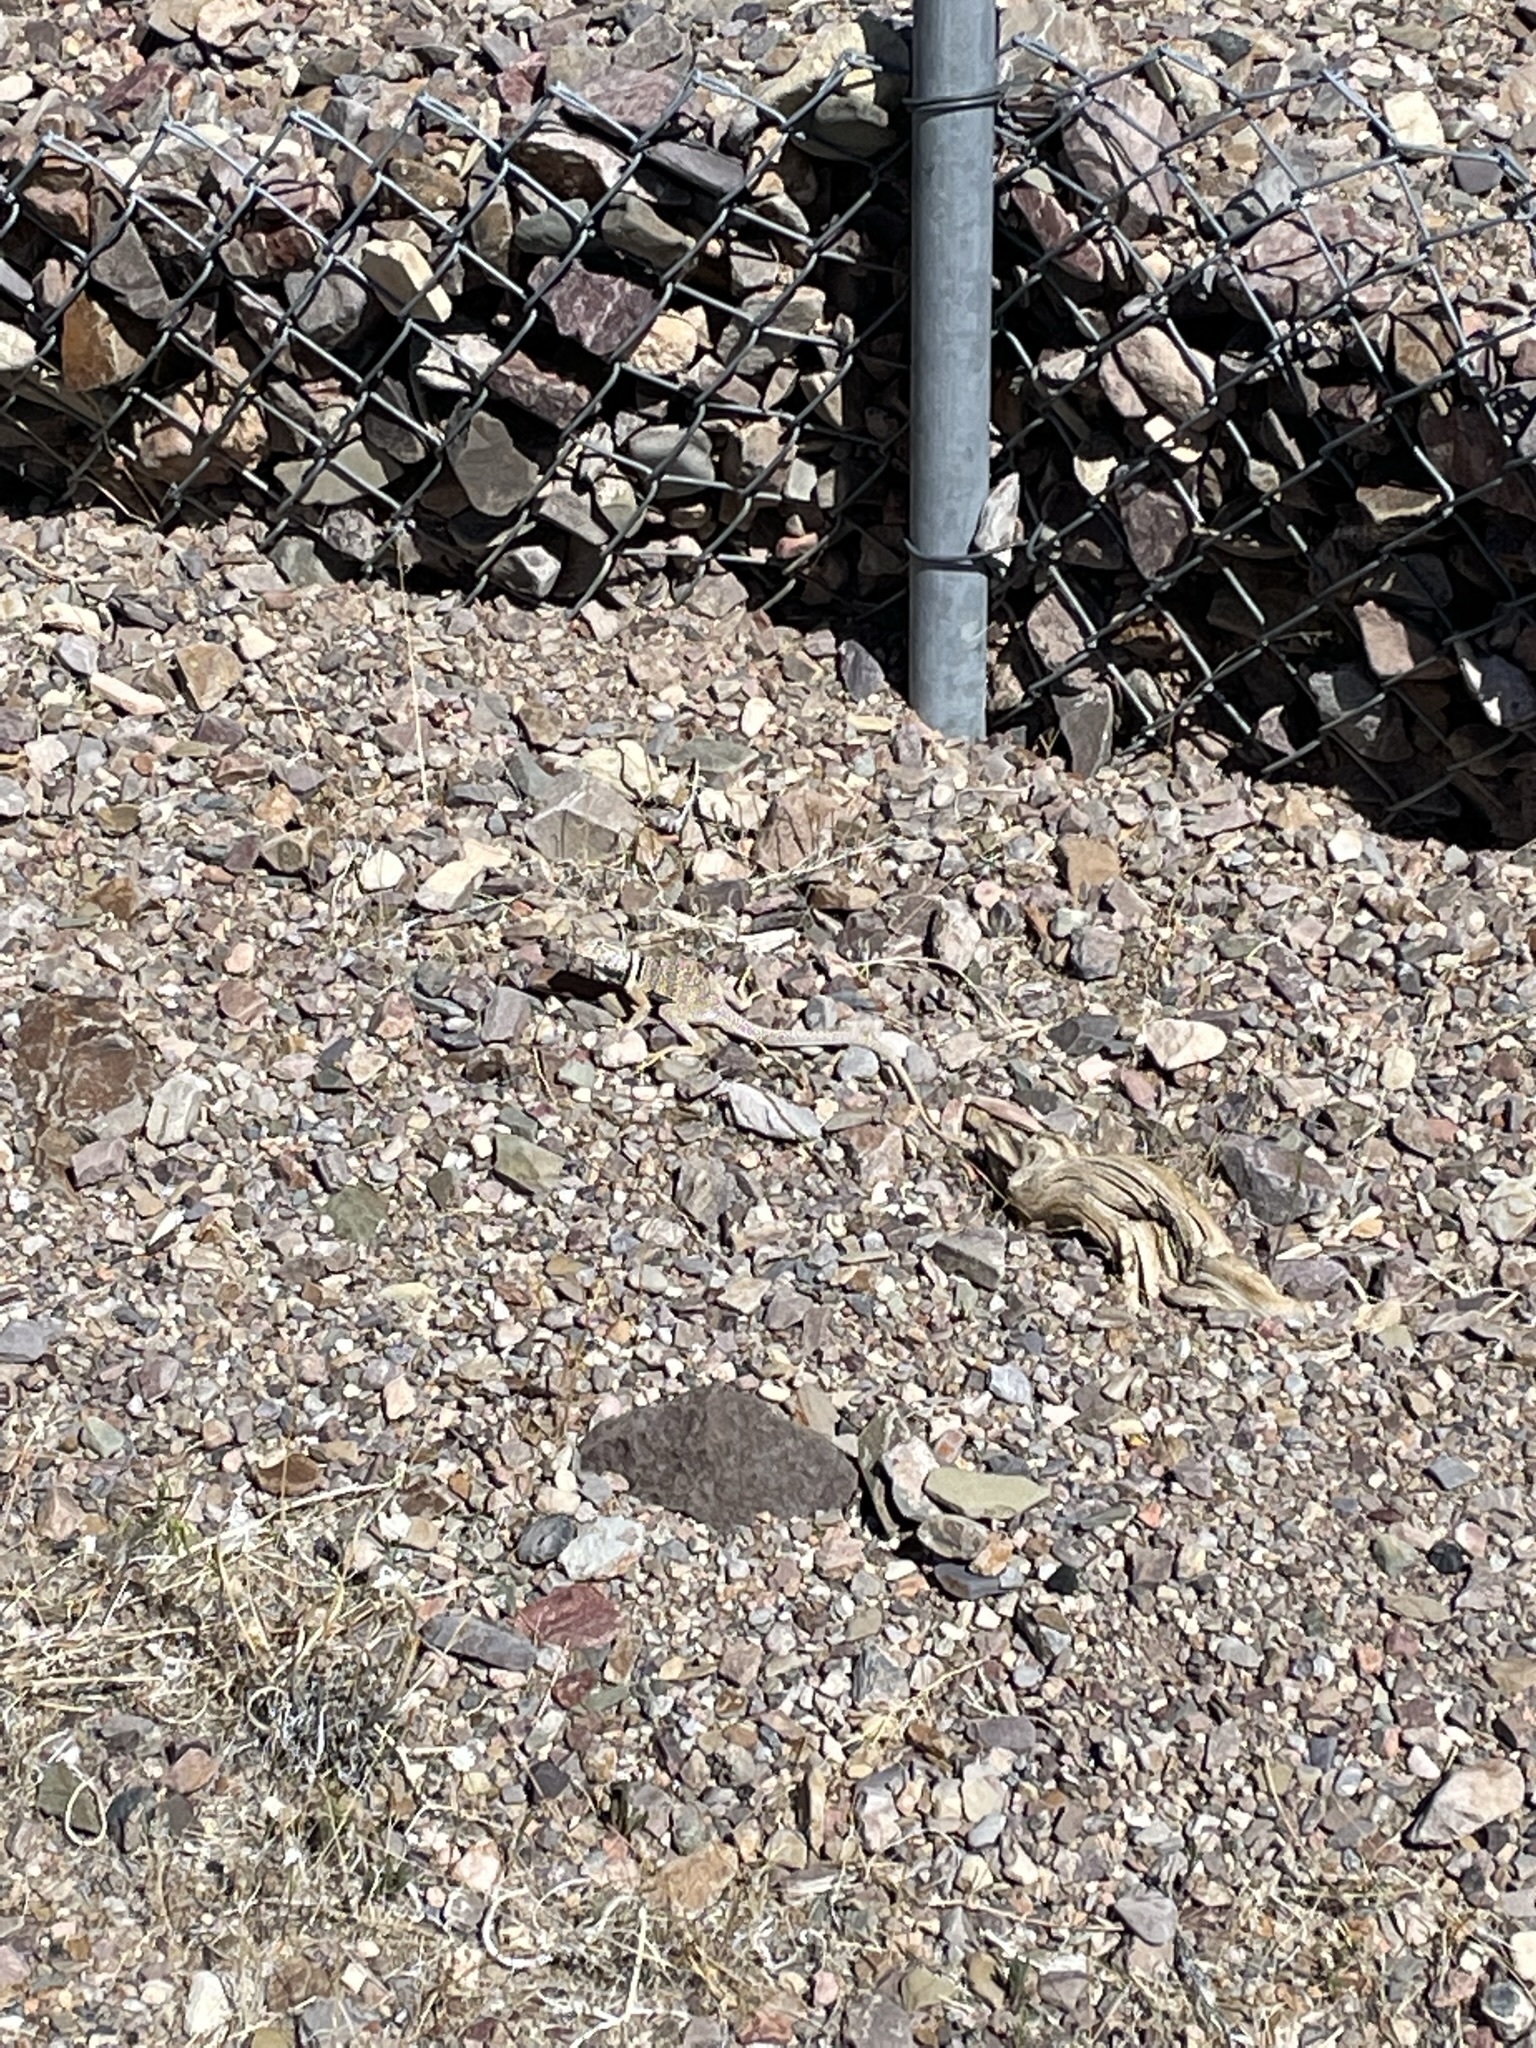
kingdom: Animalia
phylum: Chordata
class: Squamata
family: Crotaphytidae
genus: Crotaphytus
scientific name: Crotaphytus bicinctores
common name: Mojave black-collared lizard
